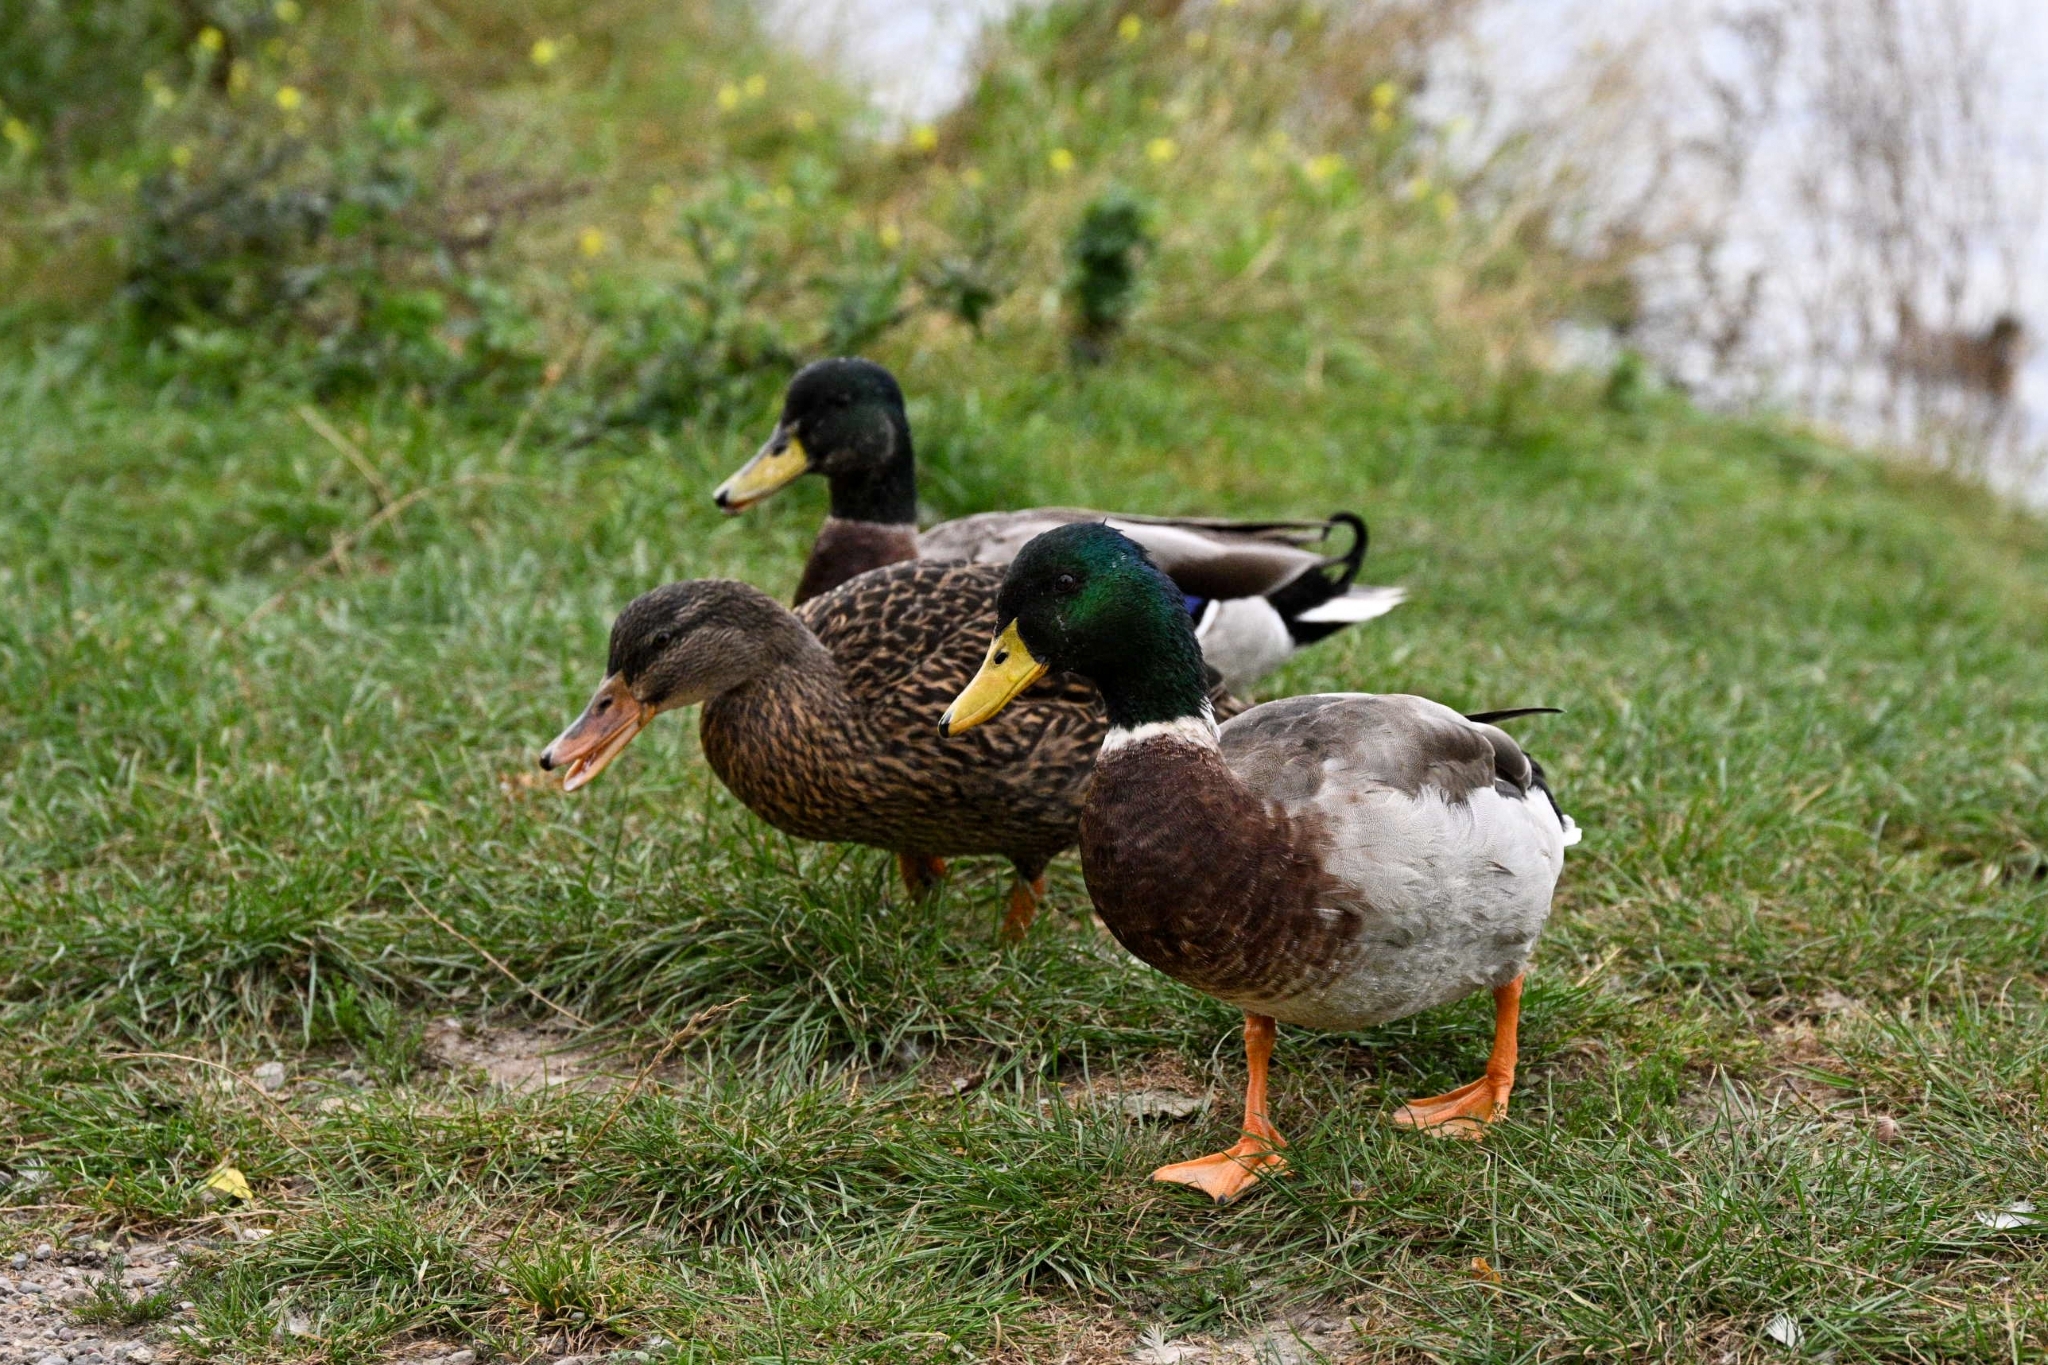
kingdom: Animalia
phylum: Chordata
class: Aves
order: Anseriformes
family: Anatidae
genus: Anas
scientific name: Anas platyrhynchos
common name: Mallard
